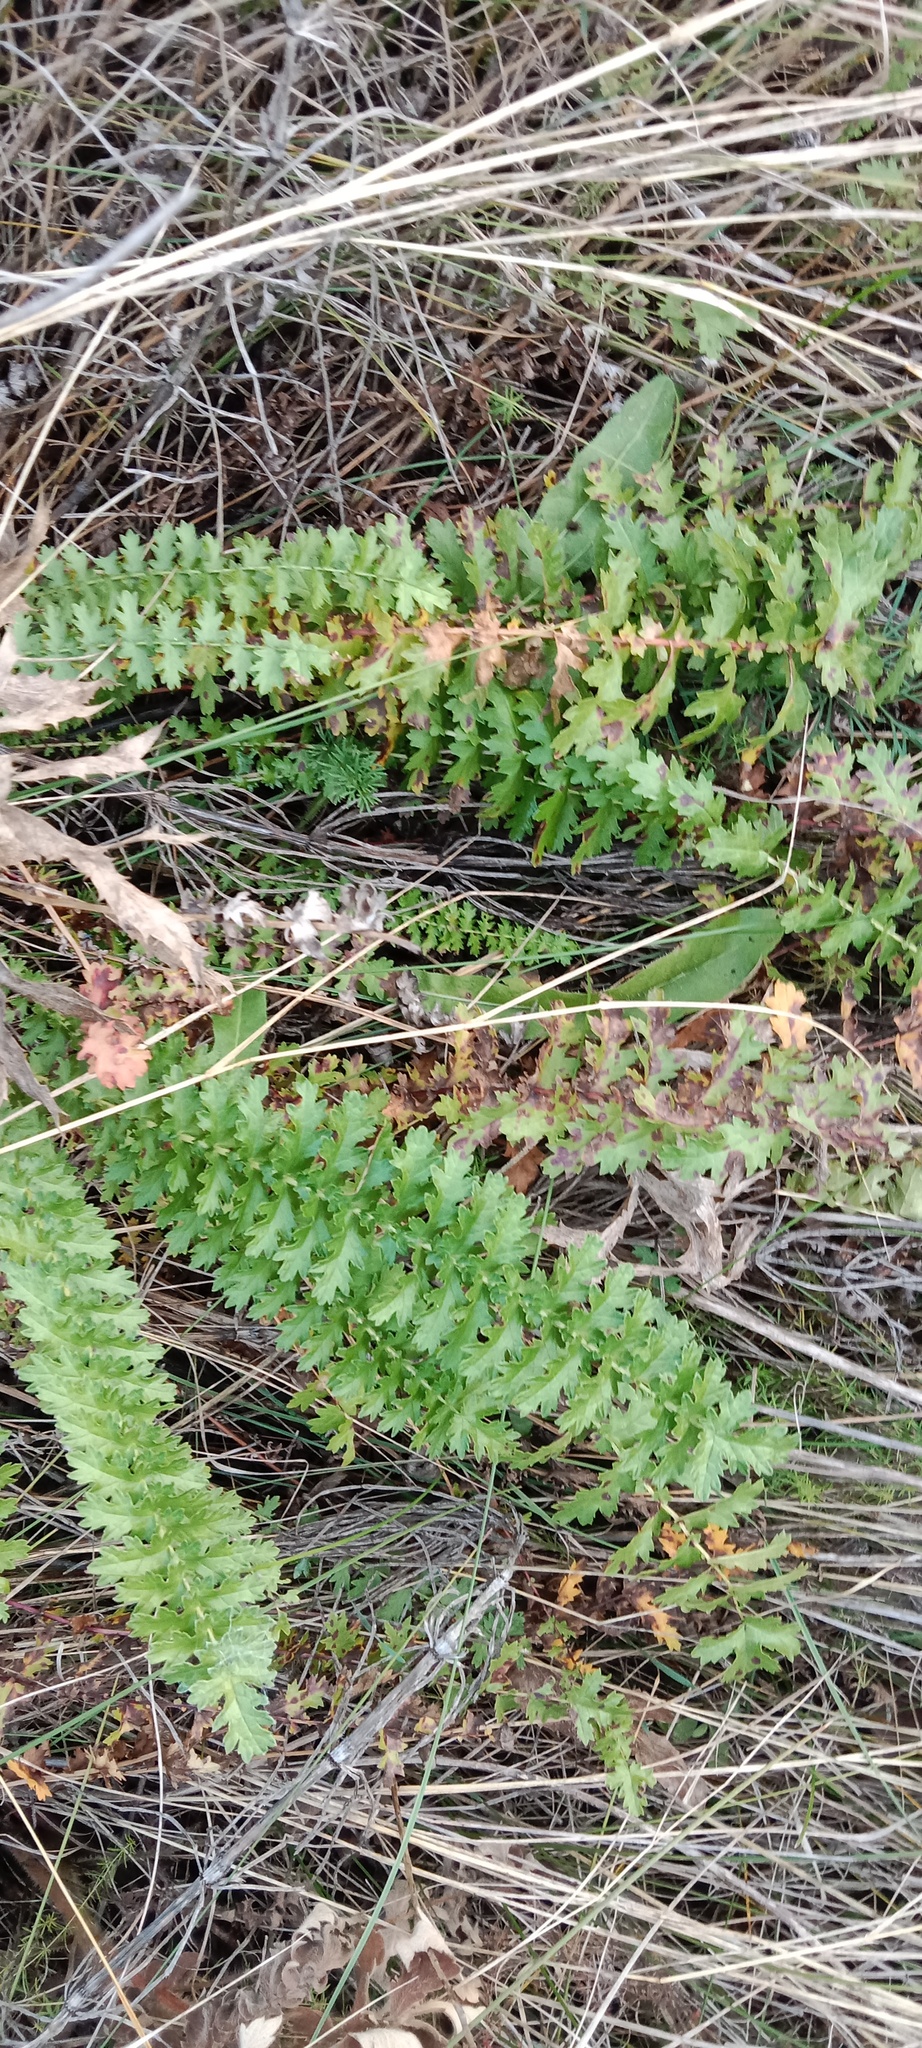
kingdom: Plantae
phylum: Tracheophyta
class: Magnoliopsida
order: Rosales
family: Rosaceae
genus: Filipendula
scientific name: Filipendula vulgaris
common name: Dropwort
